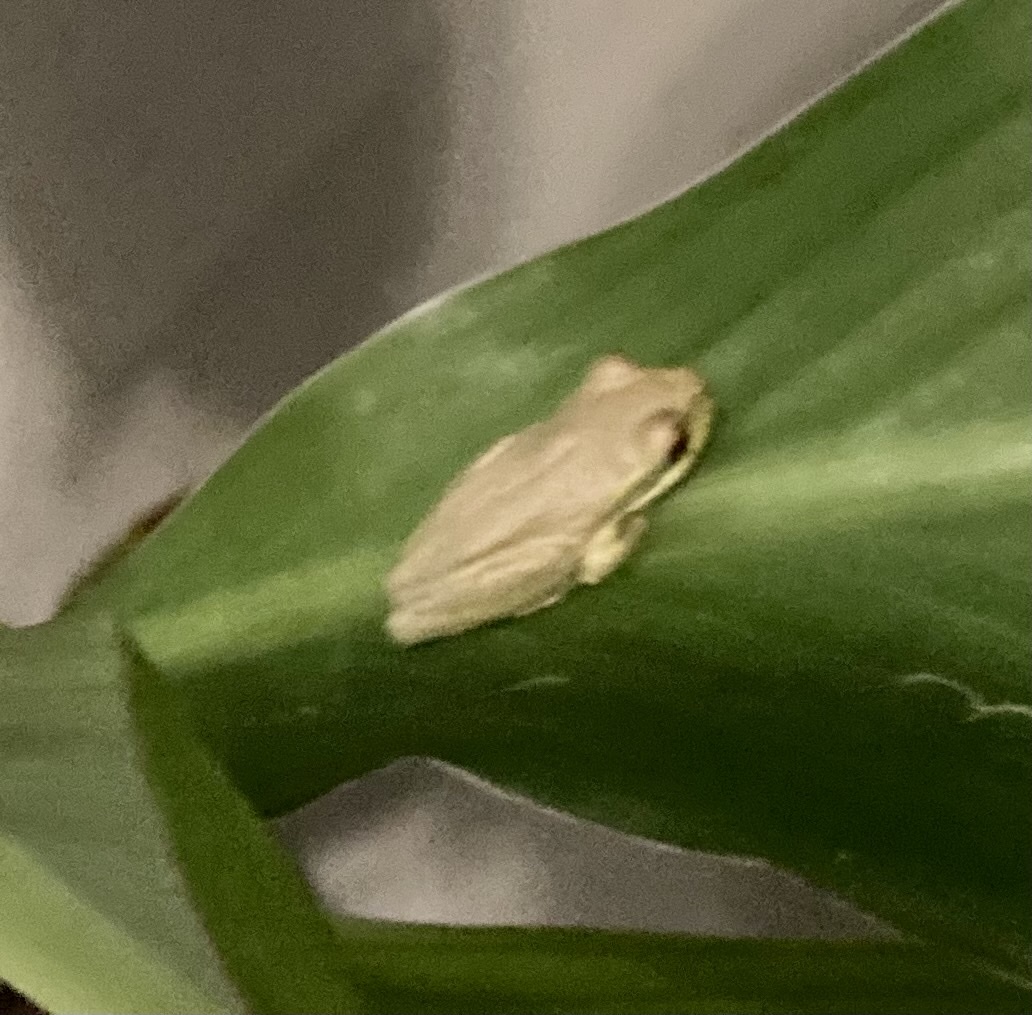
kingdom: Animalia
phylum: Chordata
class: Amphibia
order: Anura
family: Hylidae
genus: Osteopilus
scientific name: Osteopilus septentrionalis
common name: Cuban treefrog
